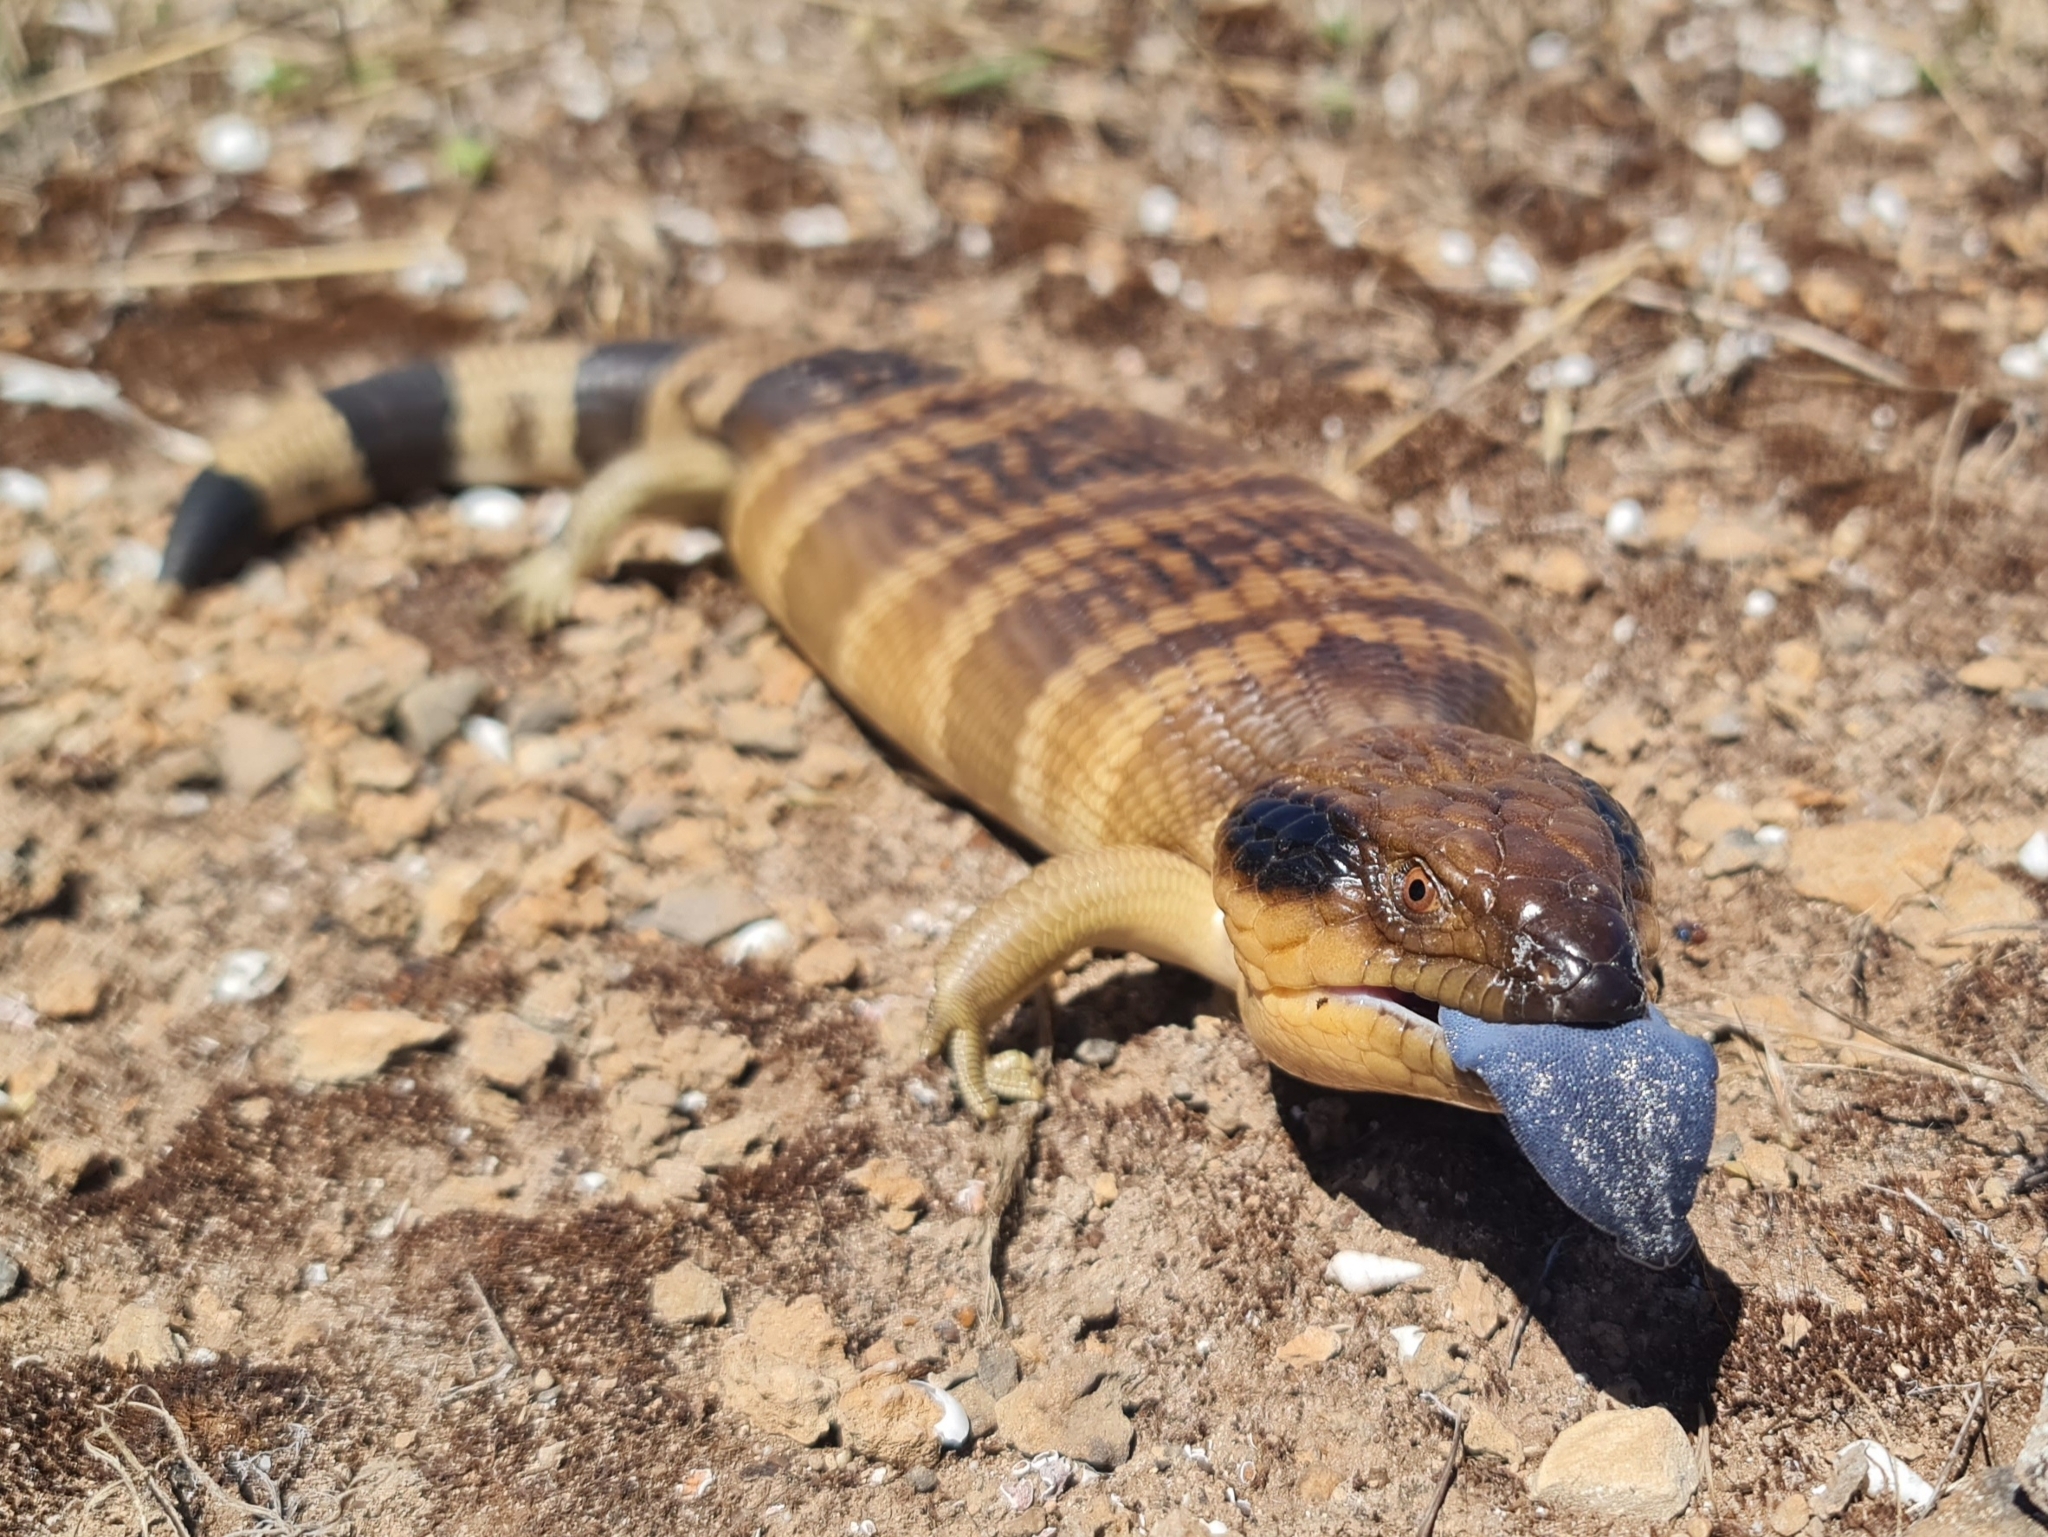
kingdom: Animalia
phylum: Chordata
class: Squamata
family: Scincidae
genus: Tiliqua
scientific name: Tiliqua occipitalis
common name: Western blue-tongued lizard
